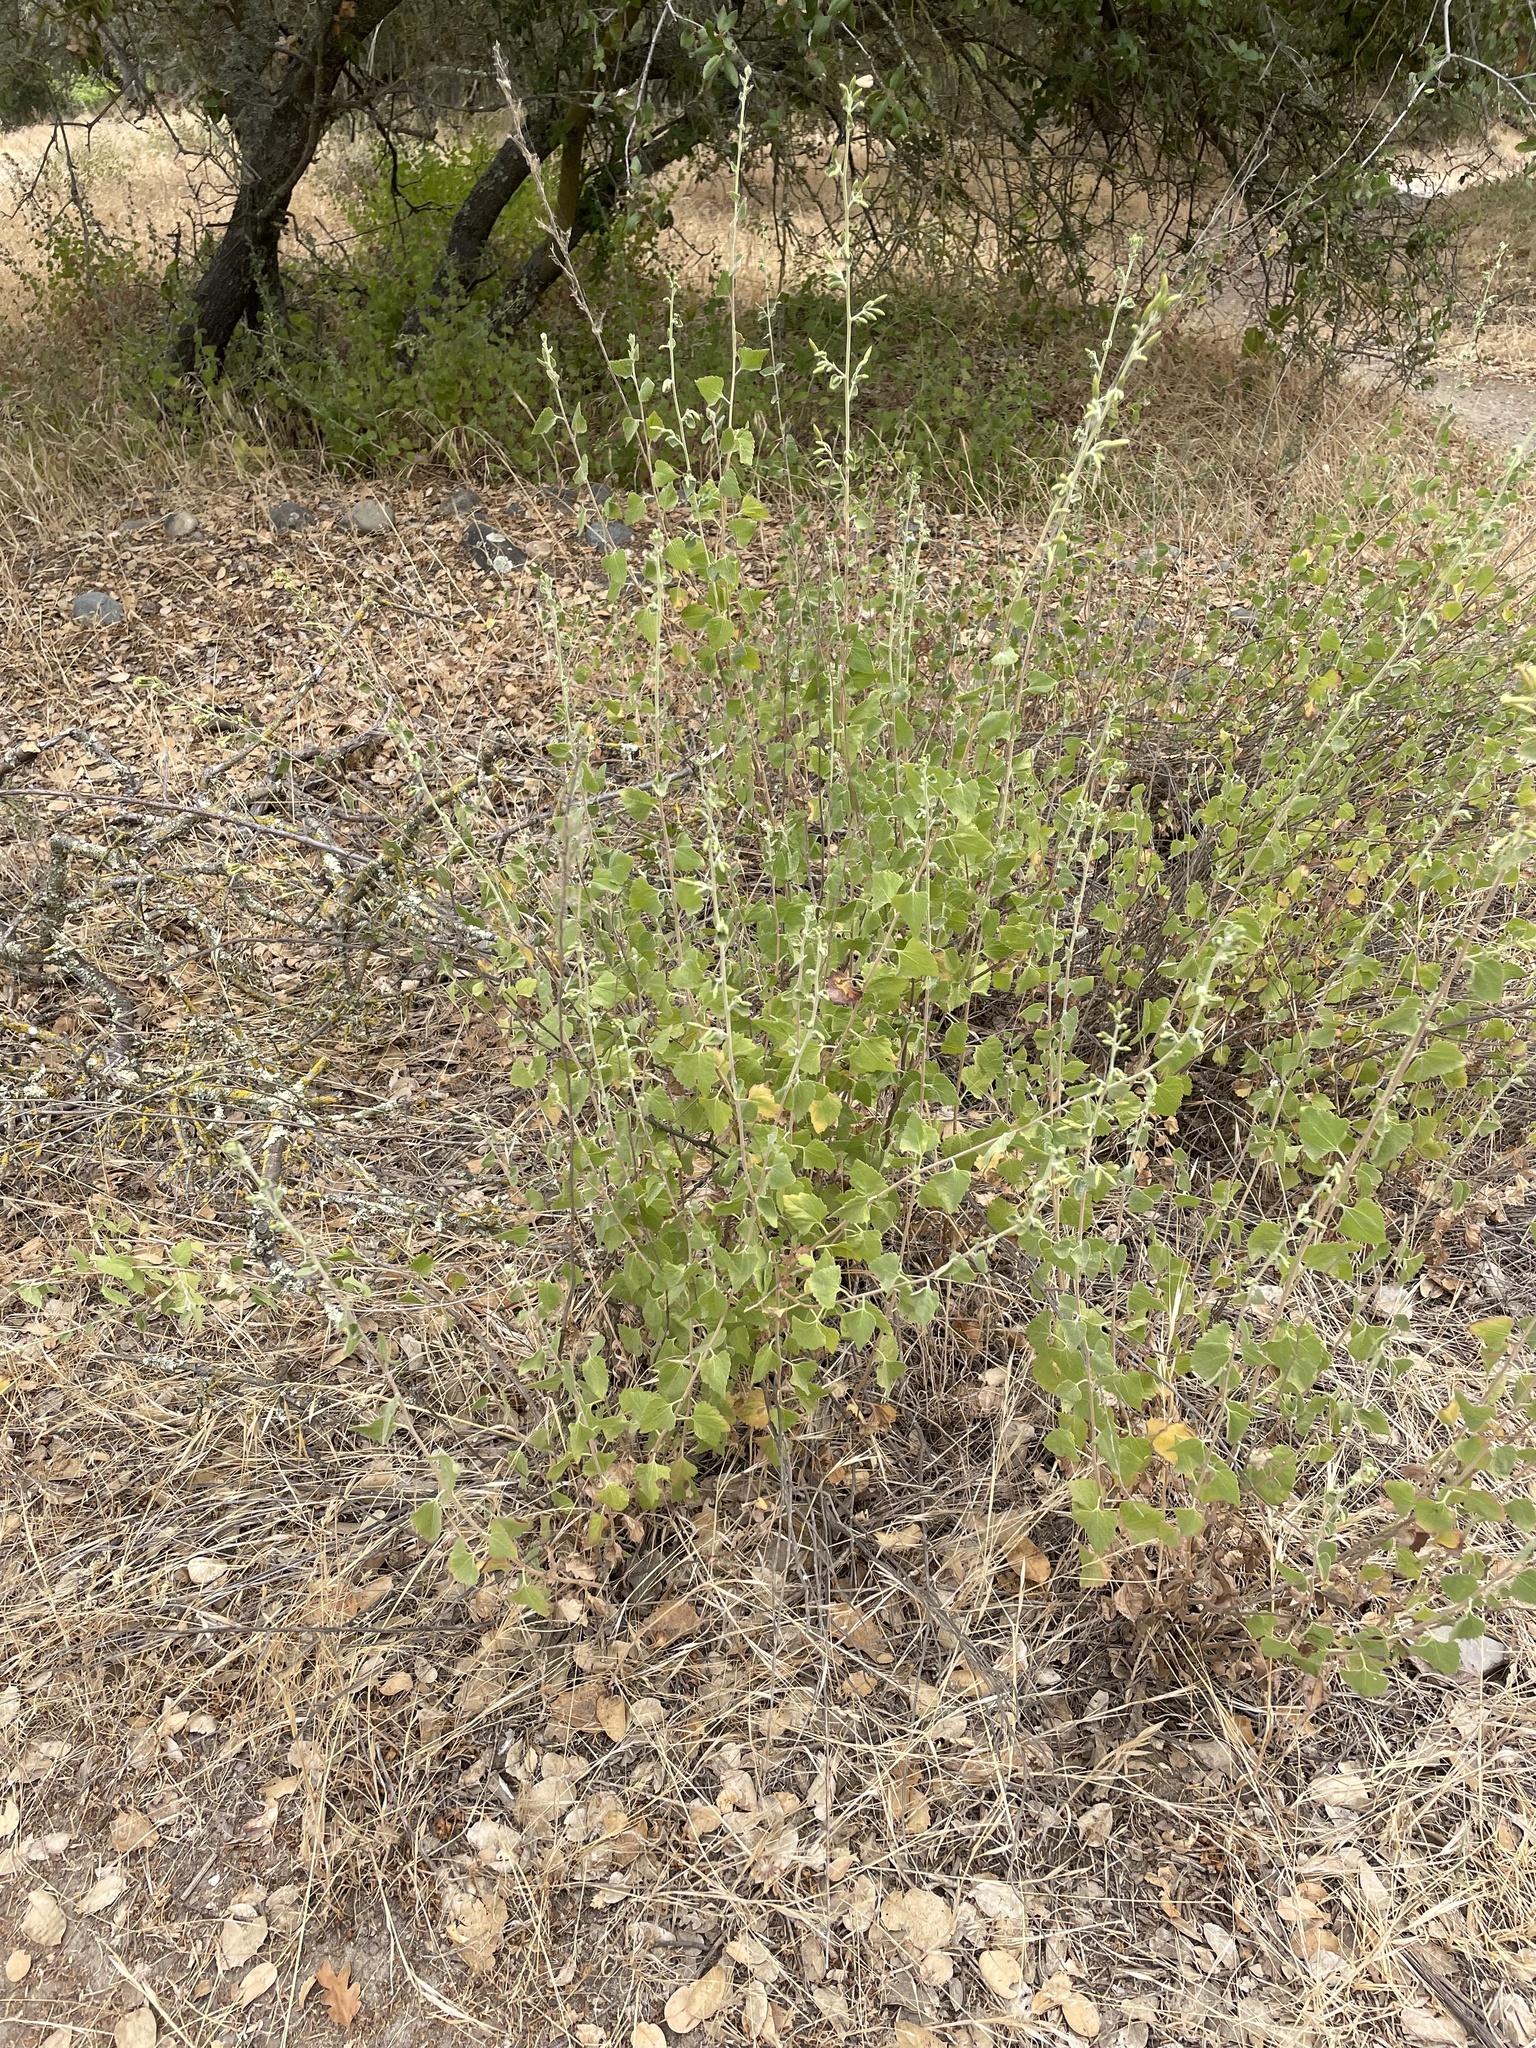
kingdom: Plantae
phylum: Tracheophyta
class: Magnoliopsida
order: Asterales
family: Asteraceae
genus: Brickellia
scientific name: Brickellia californica
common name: California brickellbush
